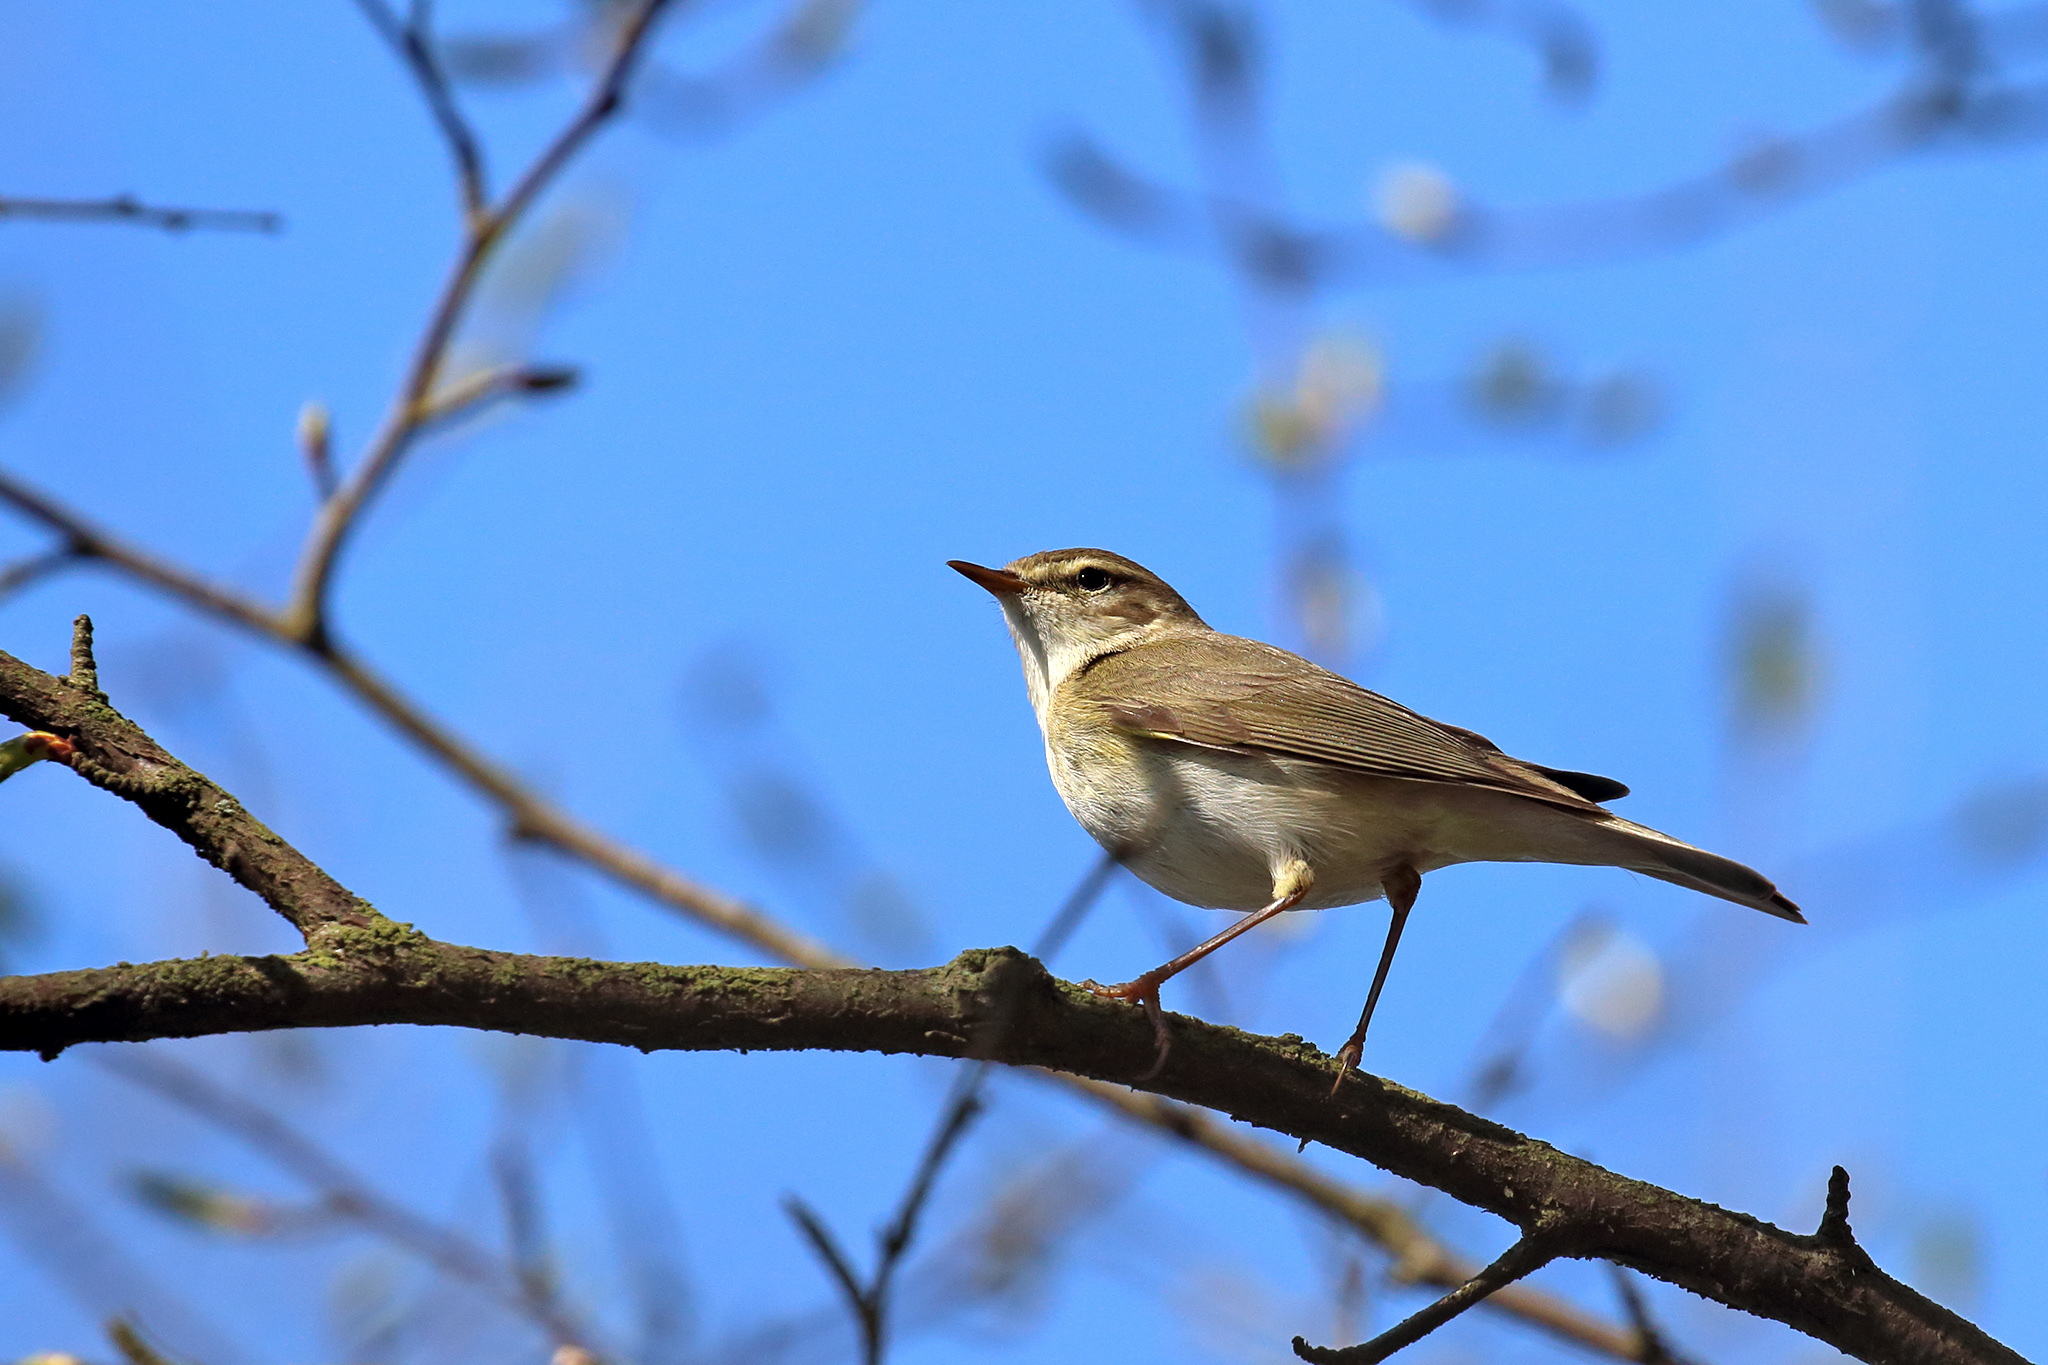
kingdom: Animalia
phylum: Chordata
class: Aves
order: Passeriformes
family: Phylloscopidae
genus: Phylloscopus
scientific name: Phylloscopus trochilus
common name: Willow warbler
